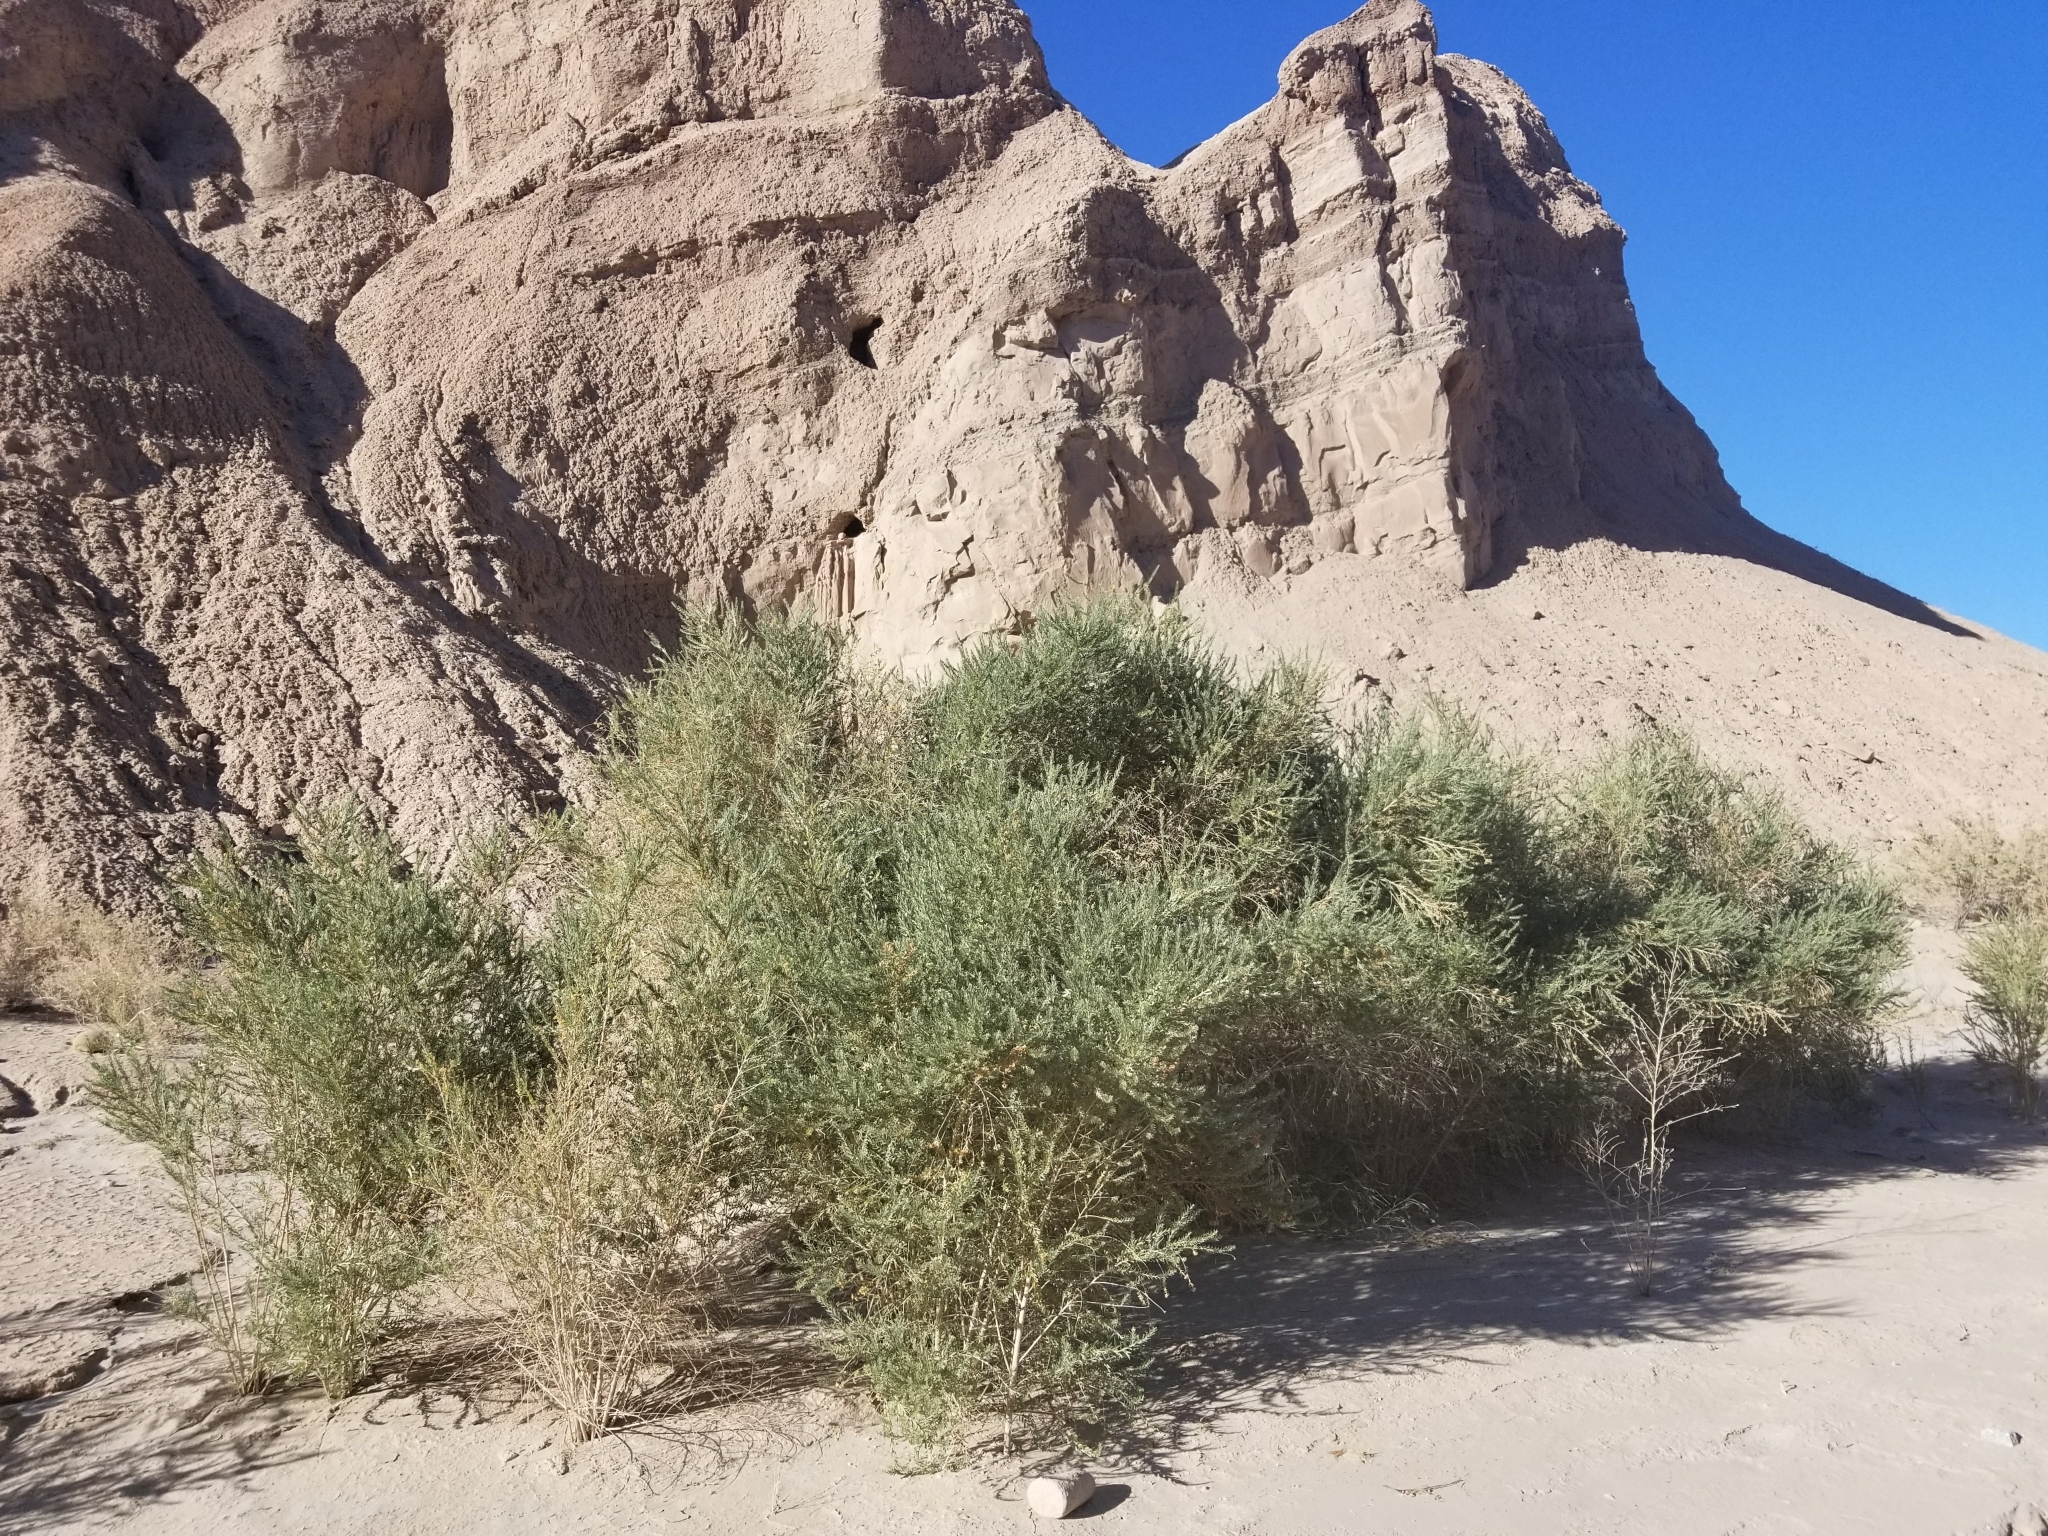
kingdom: Plantae
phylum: Tracheophyta
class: Magnoliopsida
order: Asterales
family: Asteraceae
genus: Pluchea
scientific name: Pluchea sericea
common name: Arrow-weed
